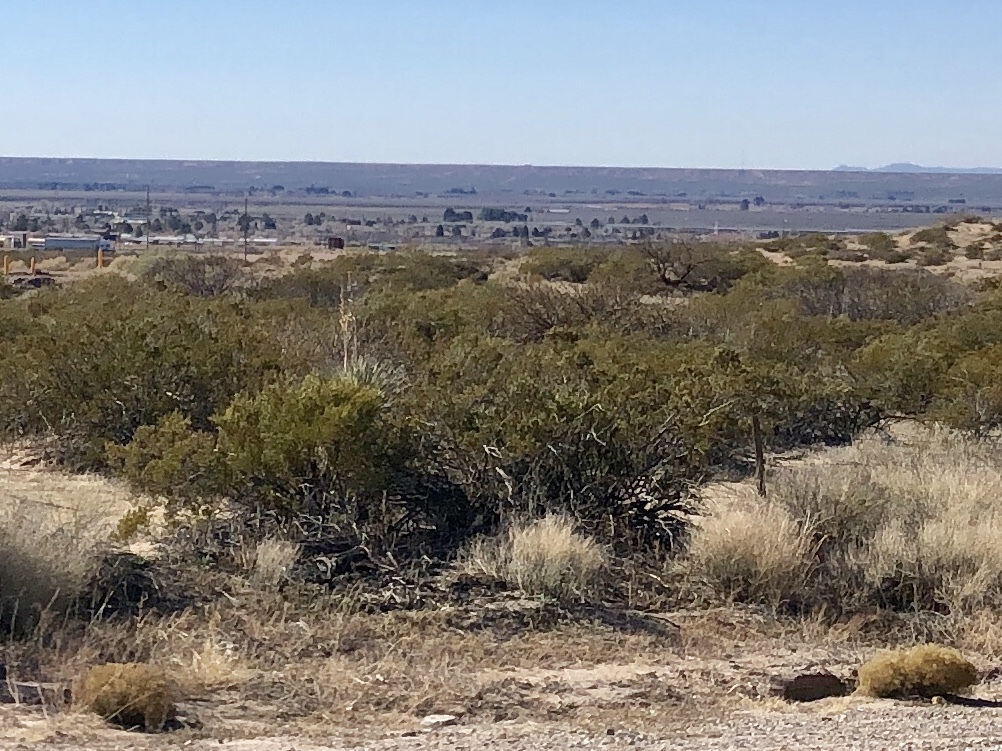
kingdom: Plantae
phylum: Tracheophyta
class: Magnoliopsida
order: Zygophyllales
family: Zygophyllaceae
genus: Larrea
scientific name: Larrea tridentata
